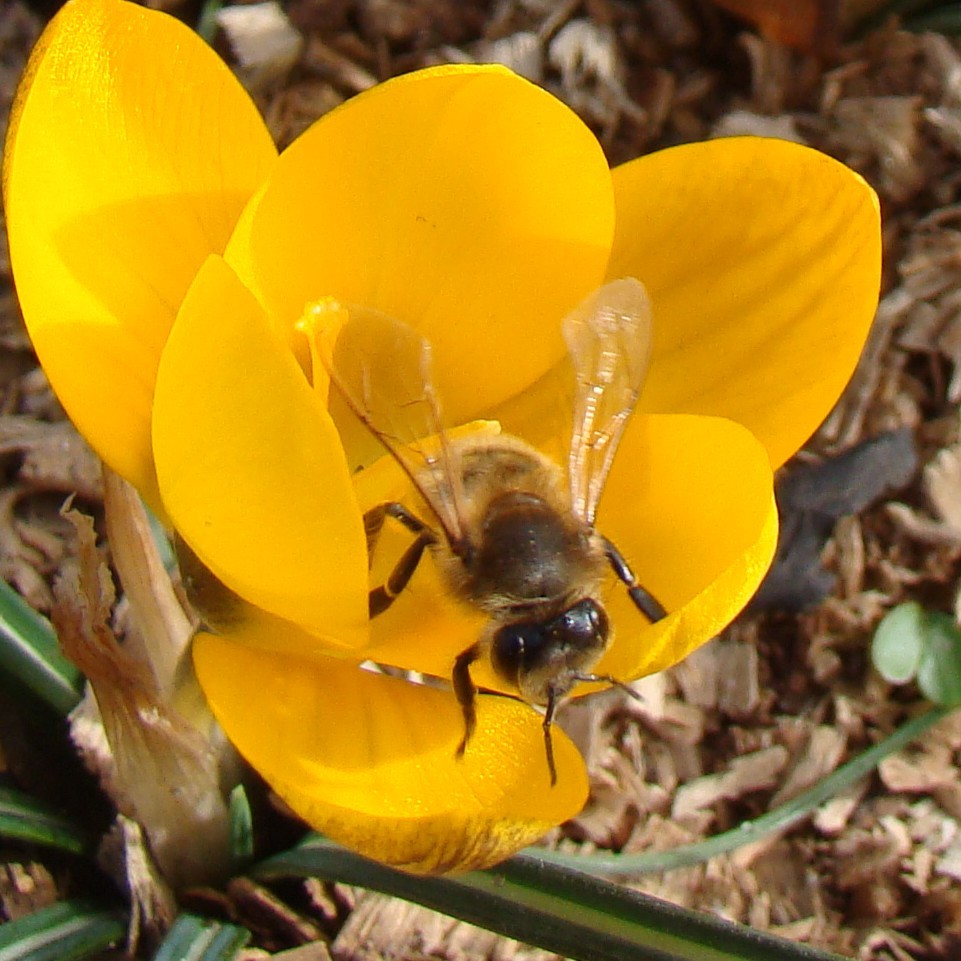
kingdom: Animalia
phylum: Arthropoda
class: Insecta
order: Hymenoptera
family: Apidae
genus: Apis
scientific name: Apis mellifera
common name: Honey bee
